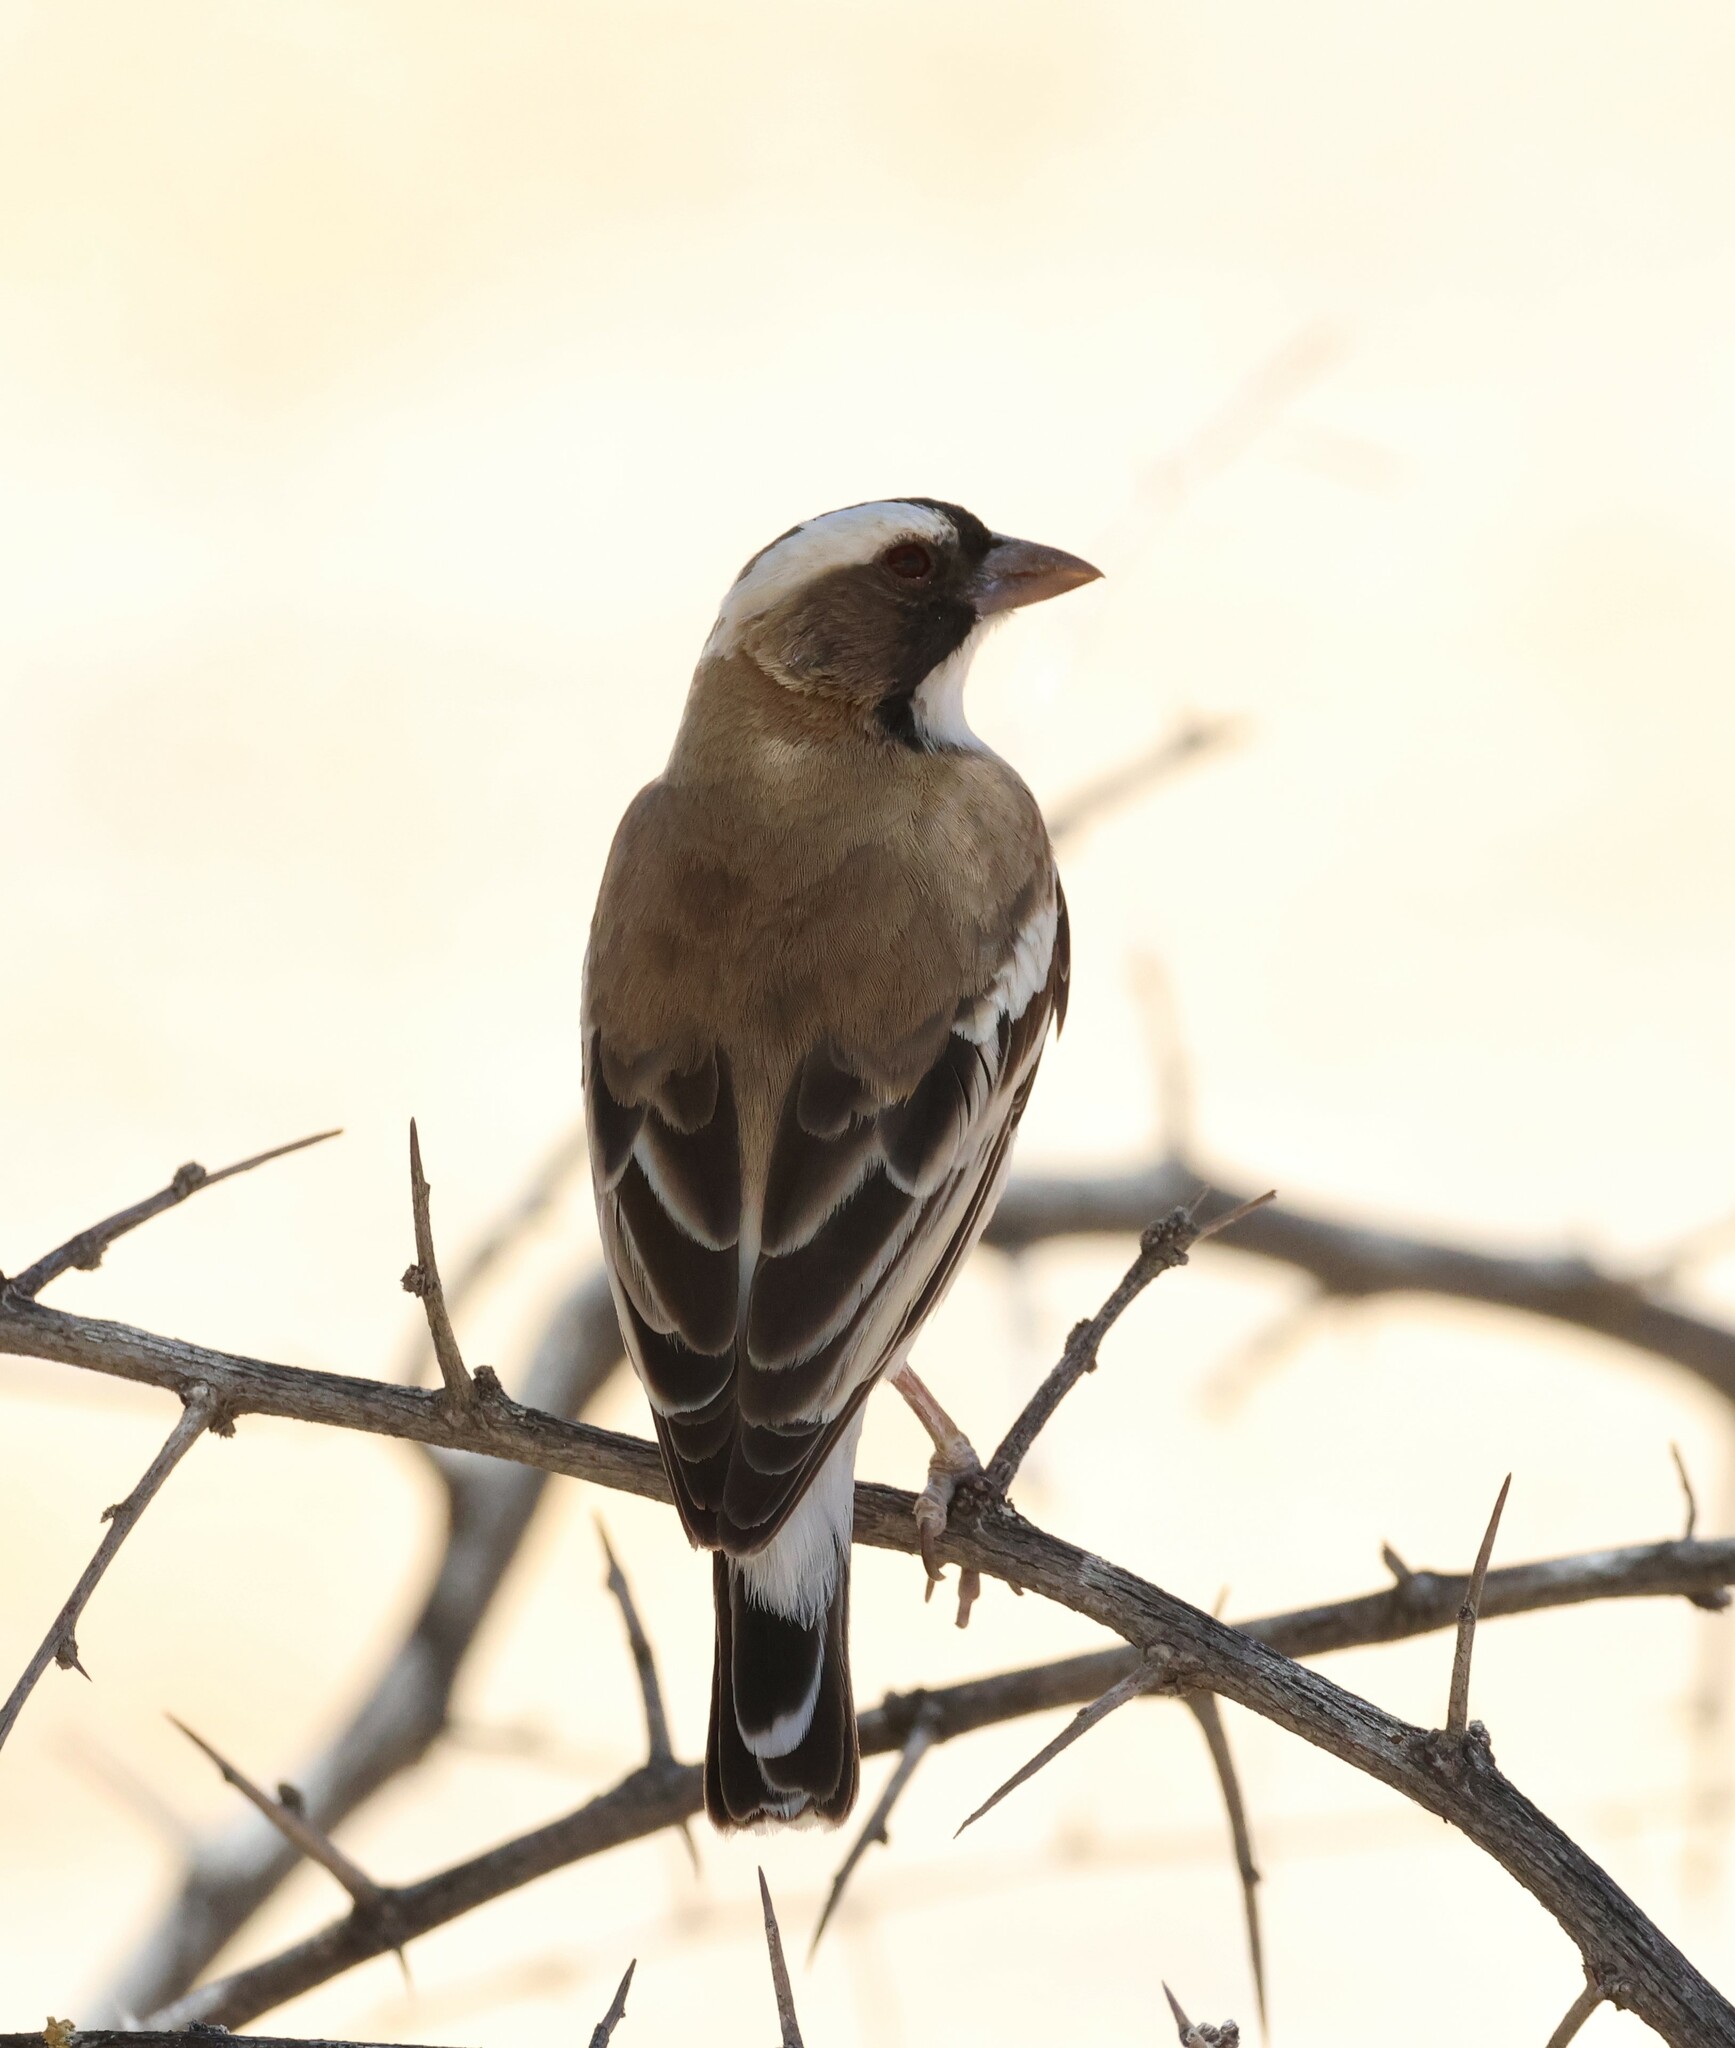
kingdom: Animalia
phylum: Chordata
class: Aves
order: Passeriformes
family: Passeridae
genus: Plocepasser
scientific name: Plocepasser mahali
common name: White-browed sparrow-weaver
